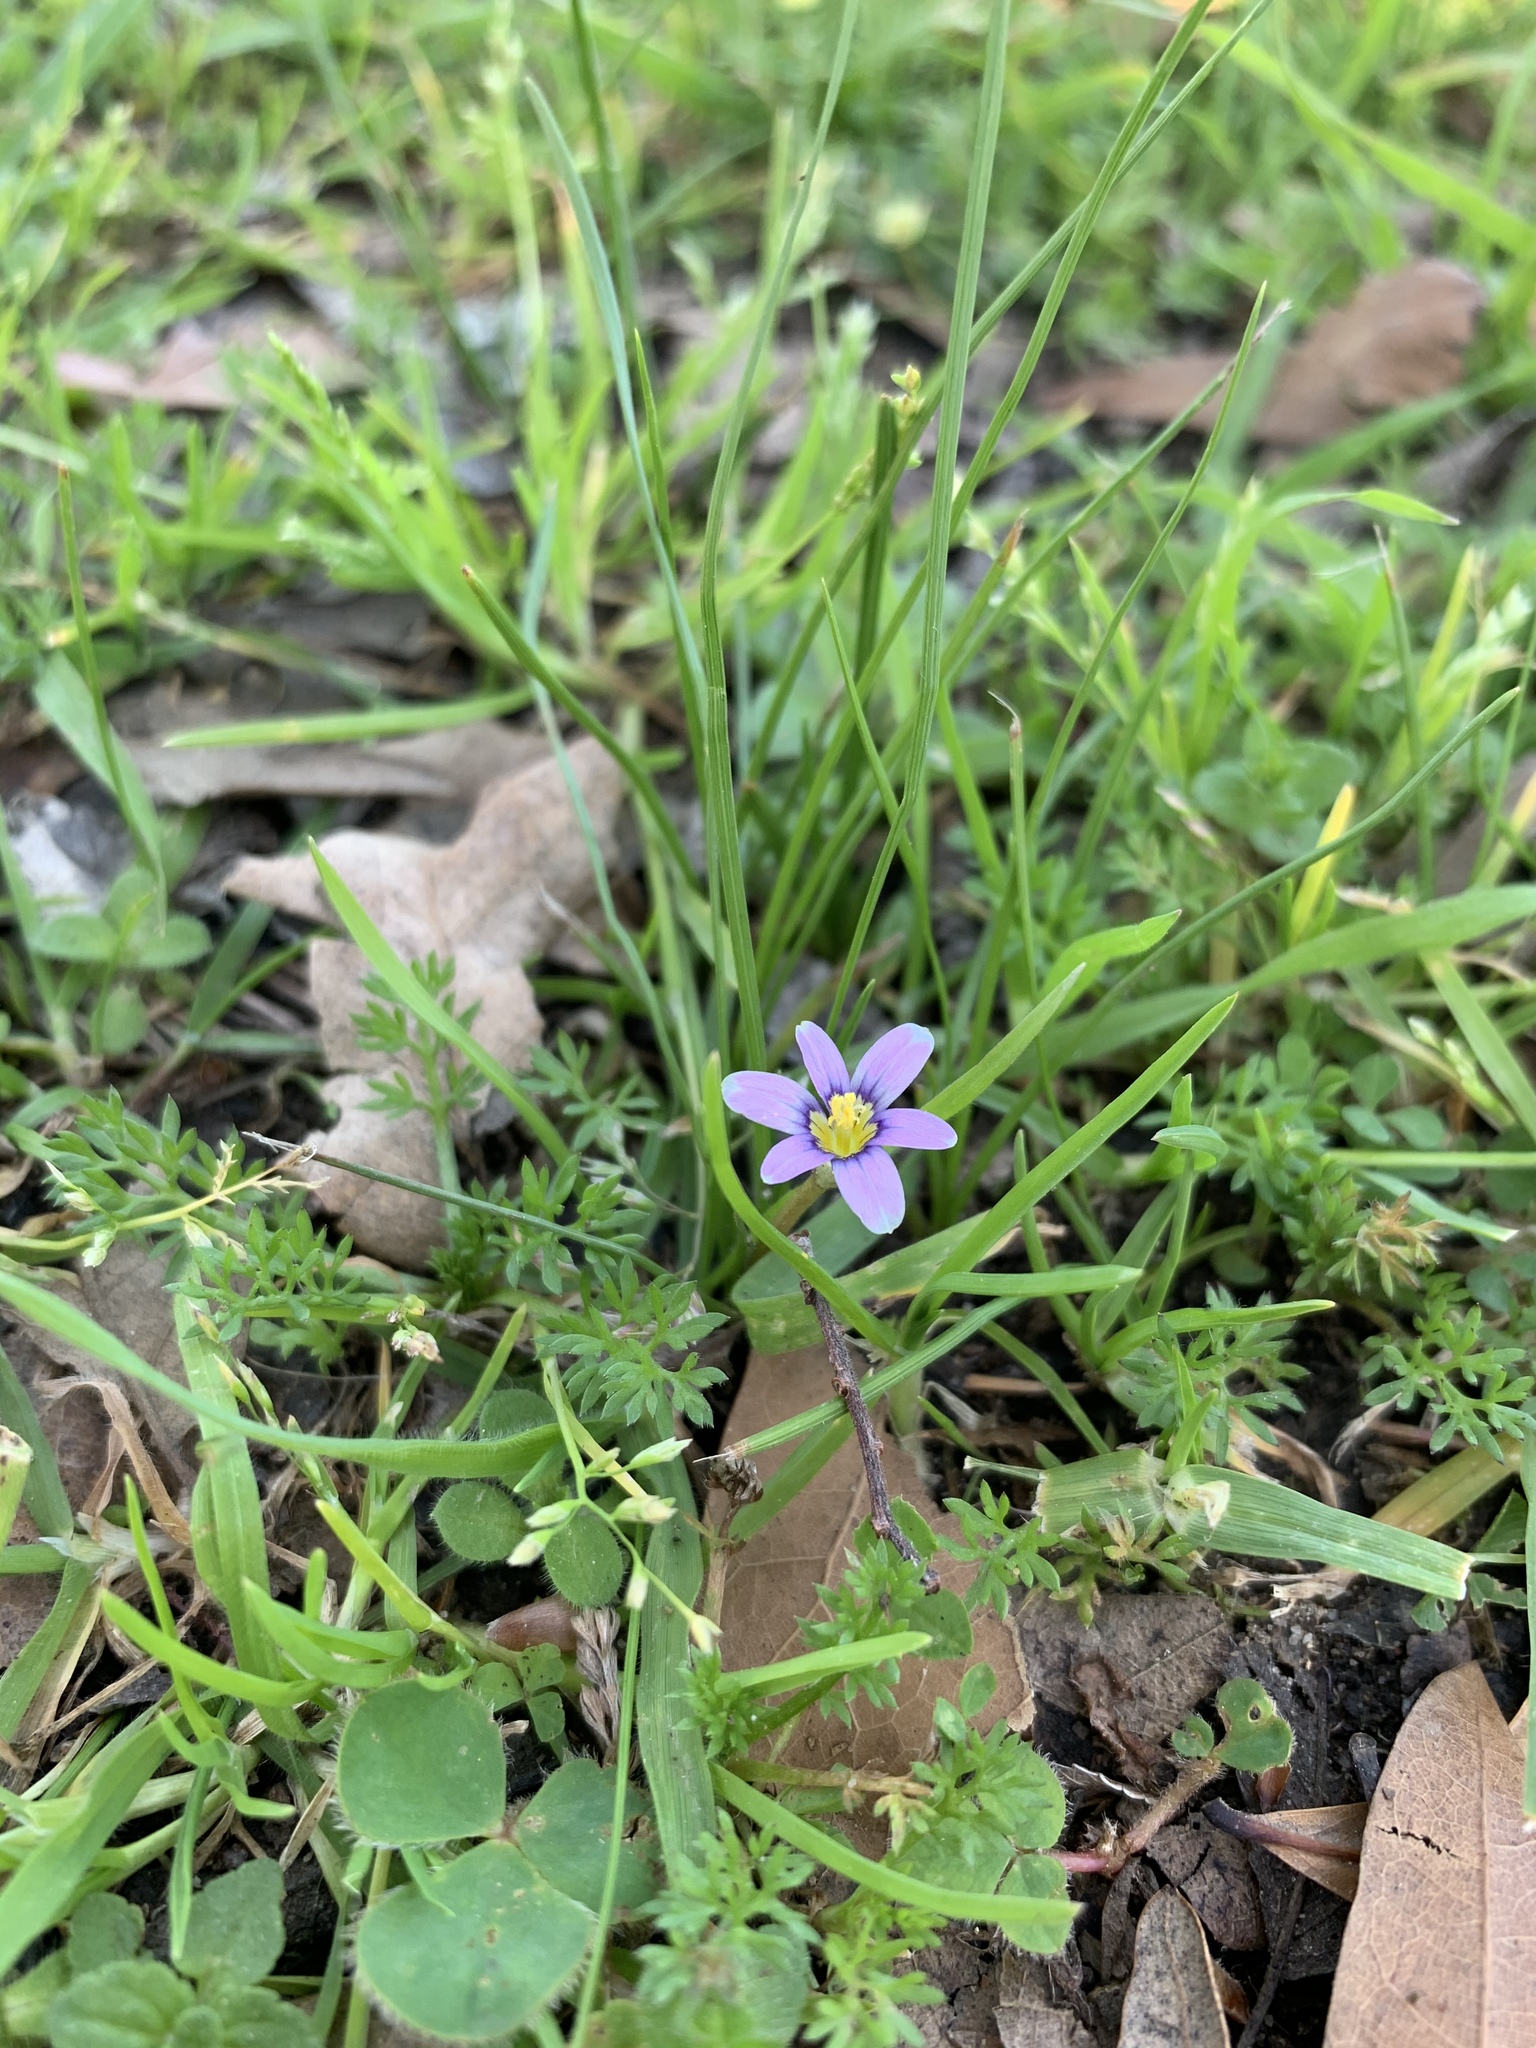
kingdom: Plantae
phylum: Tracheophyta
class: Liliopsida
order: Asparagales
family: Iridaceae
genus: Romulea
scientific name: Romulea minutiflora
